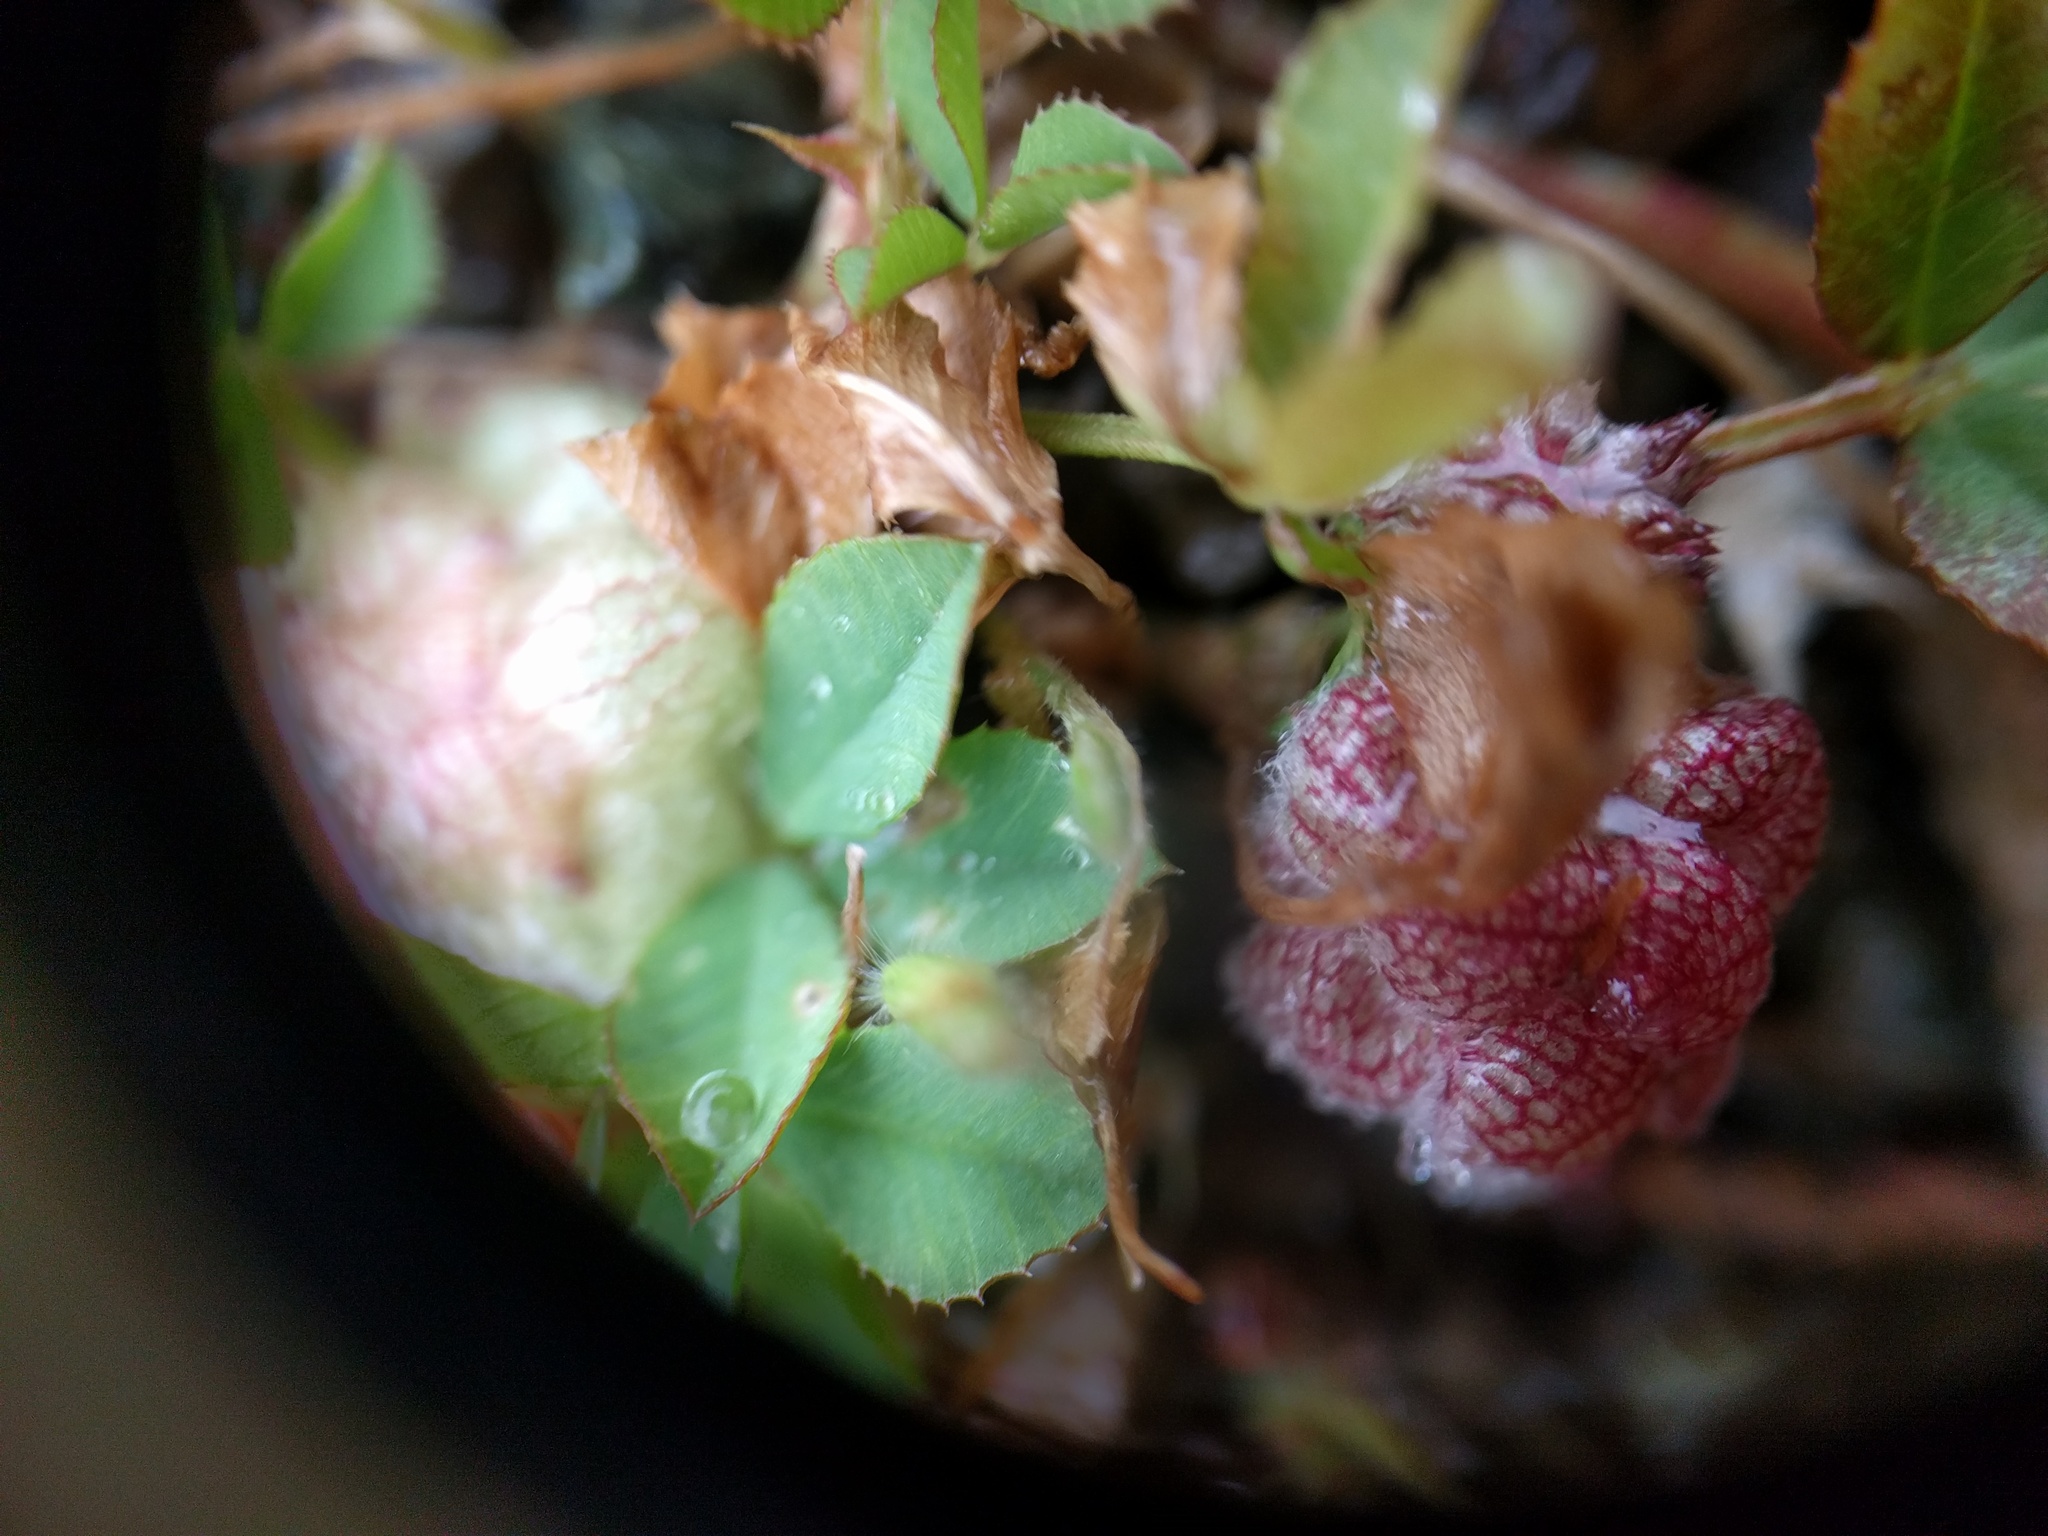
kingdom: Plantae
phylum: Tracheophyta
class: Magnoliopsida
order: Fabales
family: Fabaceae
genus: Trifolium
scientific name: Trifolium tomentosum
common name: Woolly clover
